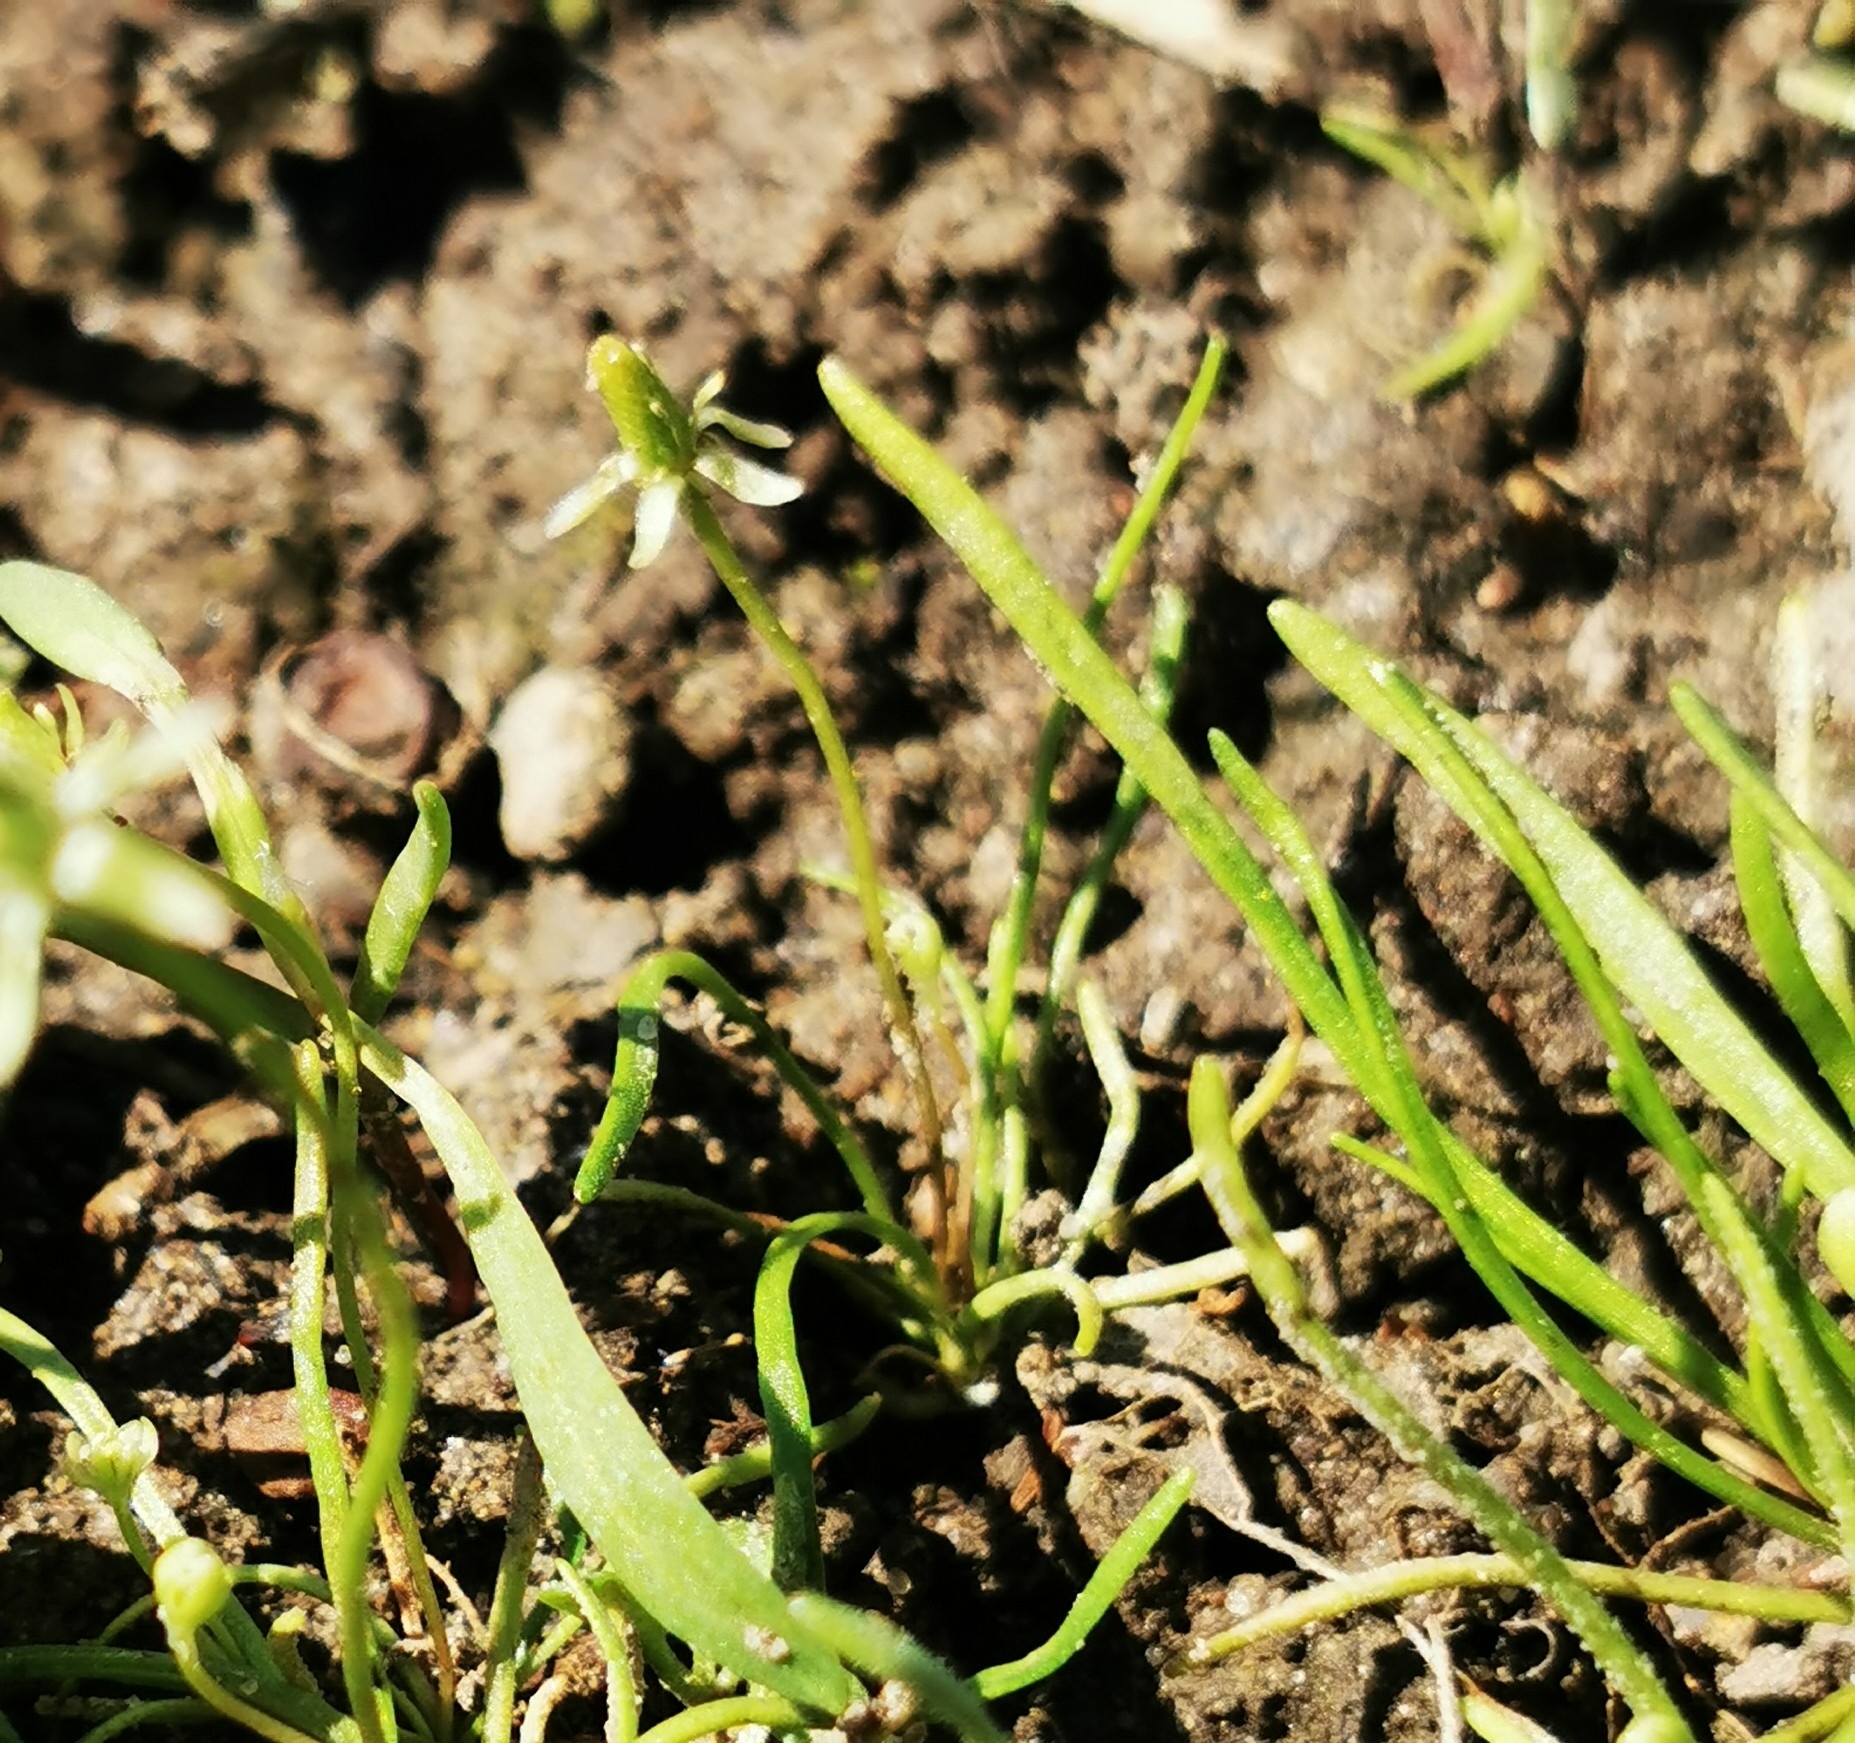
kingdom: Plantae
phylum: Tracheophyta
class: Magnoliopsida
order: Ranunculales
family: Ranunculaceae
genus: Myosurus
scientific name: Myosurus minimus
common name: Mousetail
